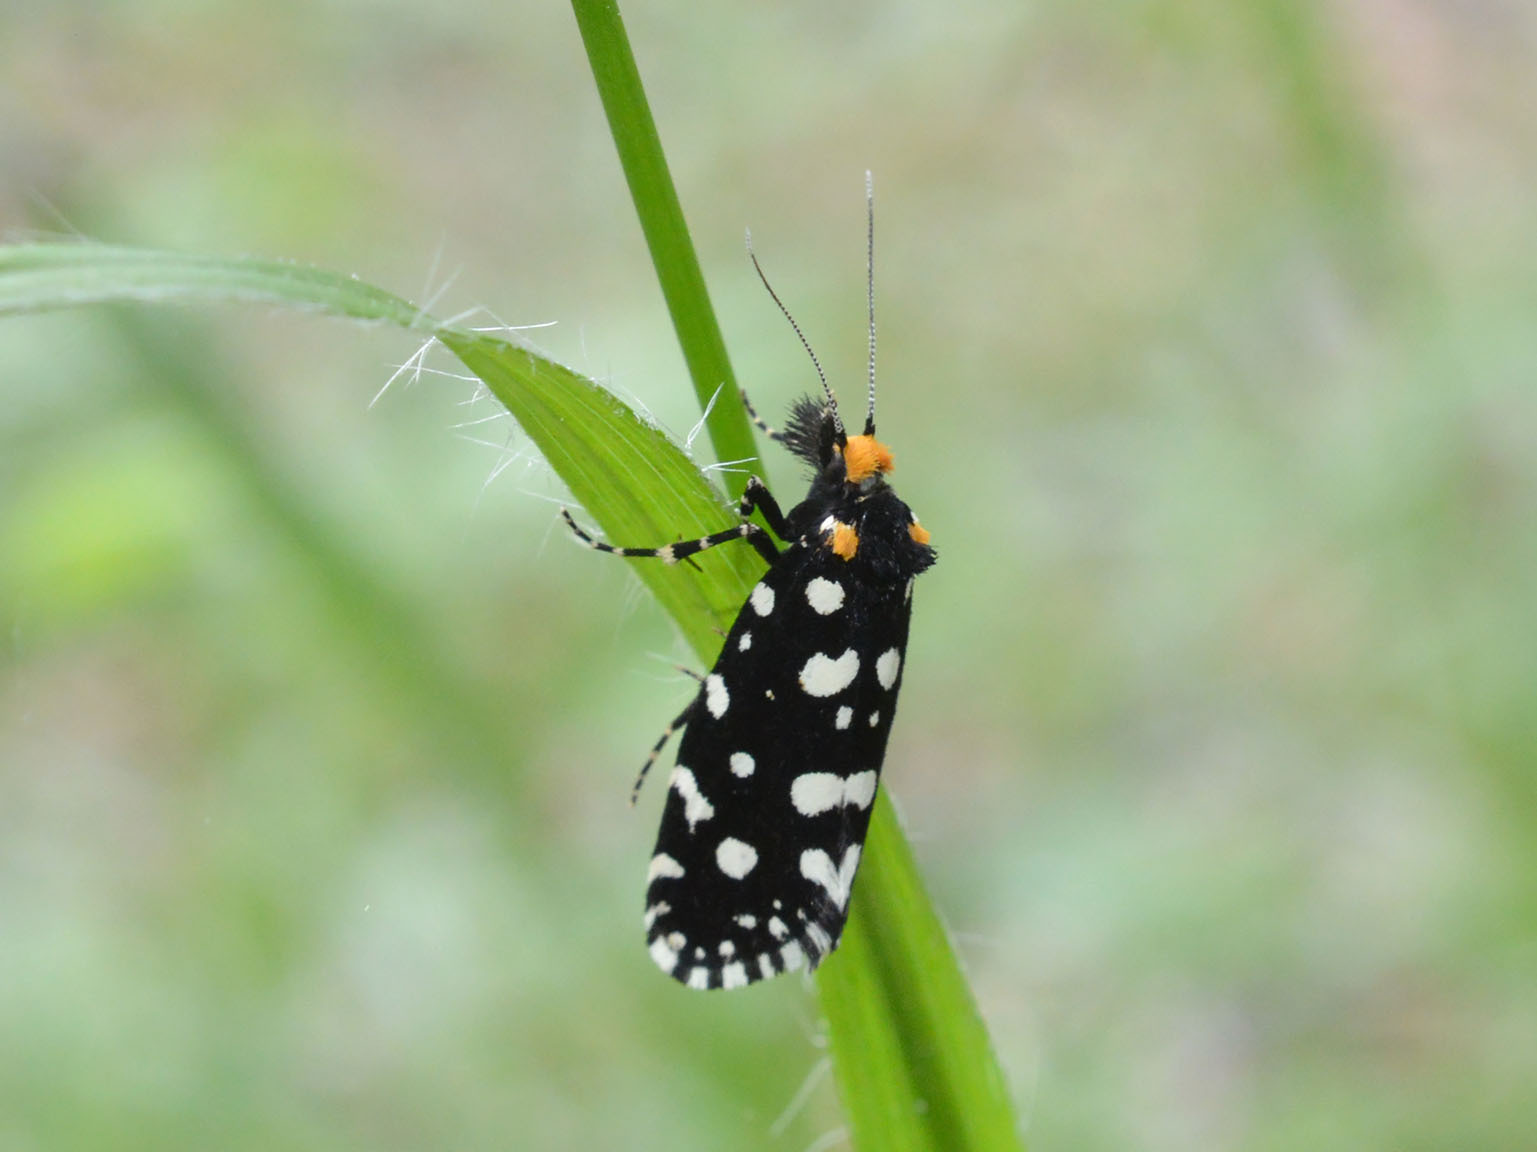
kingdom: Animalia
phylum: Arthropoda
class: Insecta
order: Lepidoptera
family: Tineidae
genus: Euplocamus
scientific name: Euplocamus anthracinalis
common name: Black clothes
